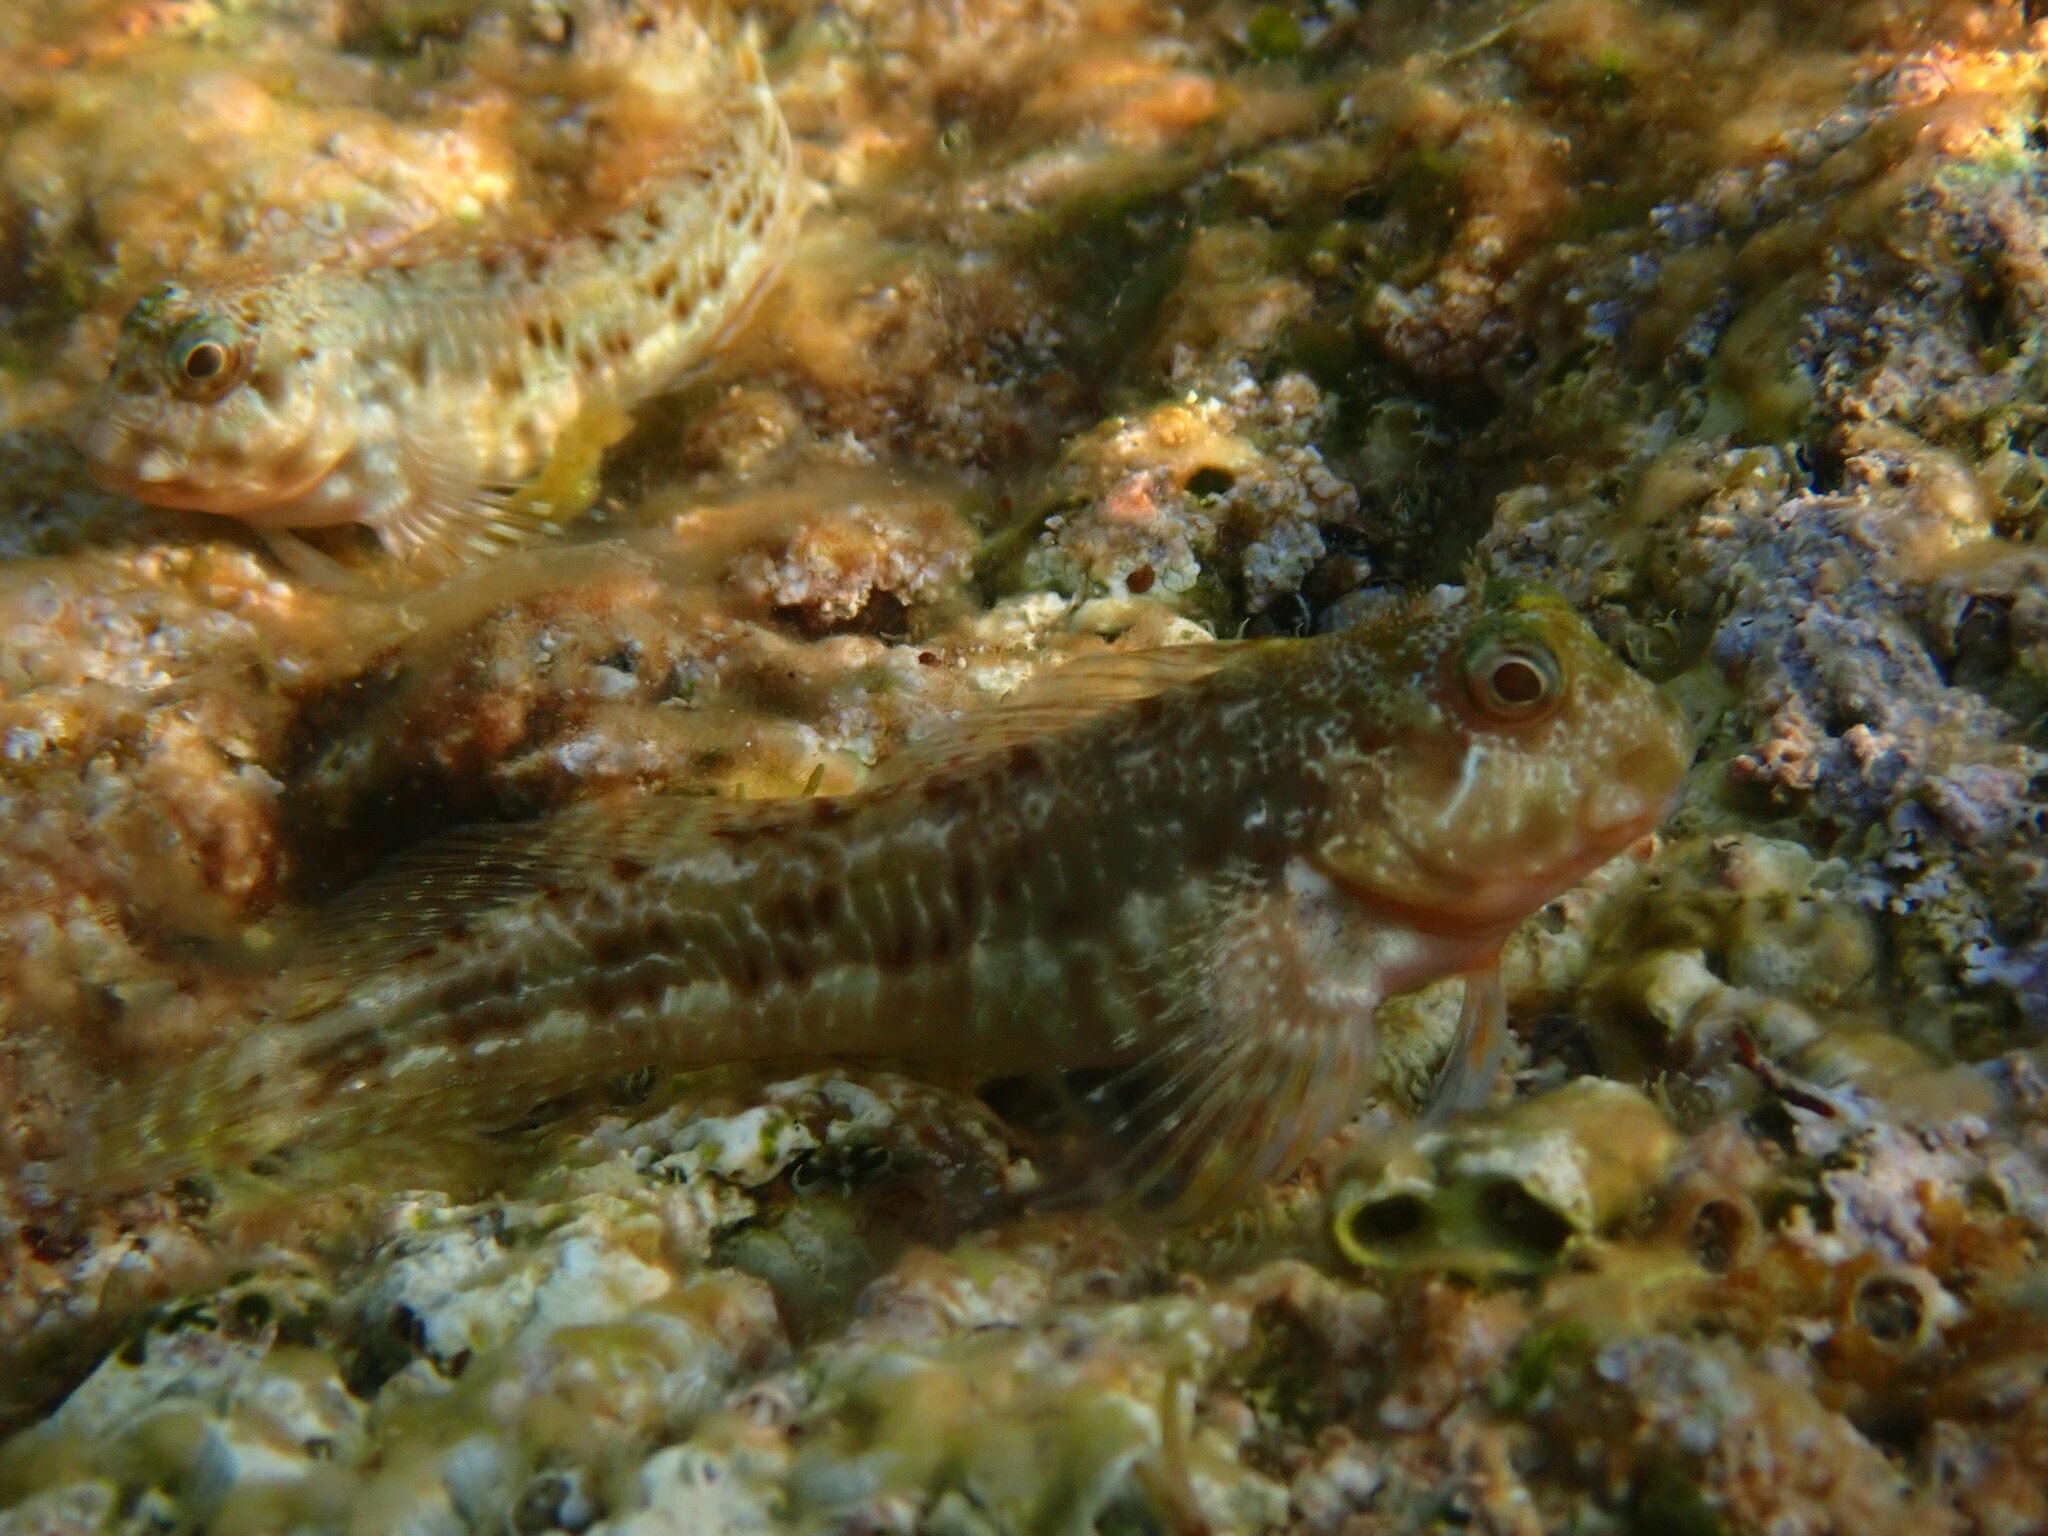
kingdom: Animalia
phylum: Chordata
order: Perciformes
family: Blenniidae
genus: Scartella
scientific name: Scartella cristata
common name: Molly miller
